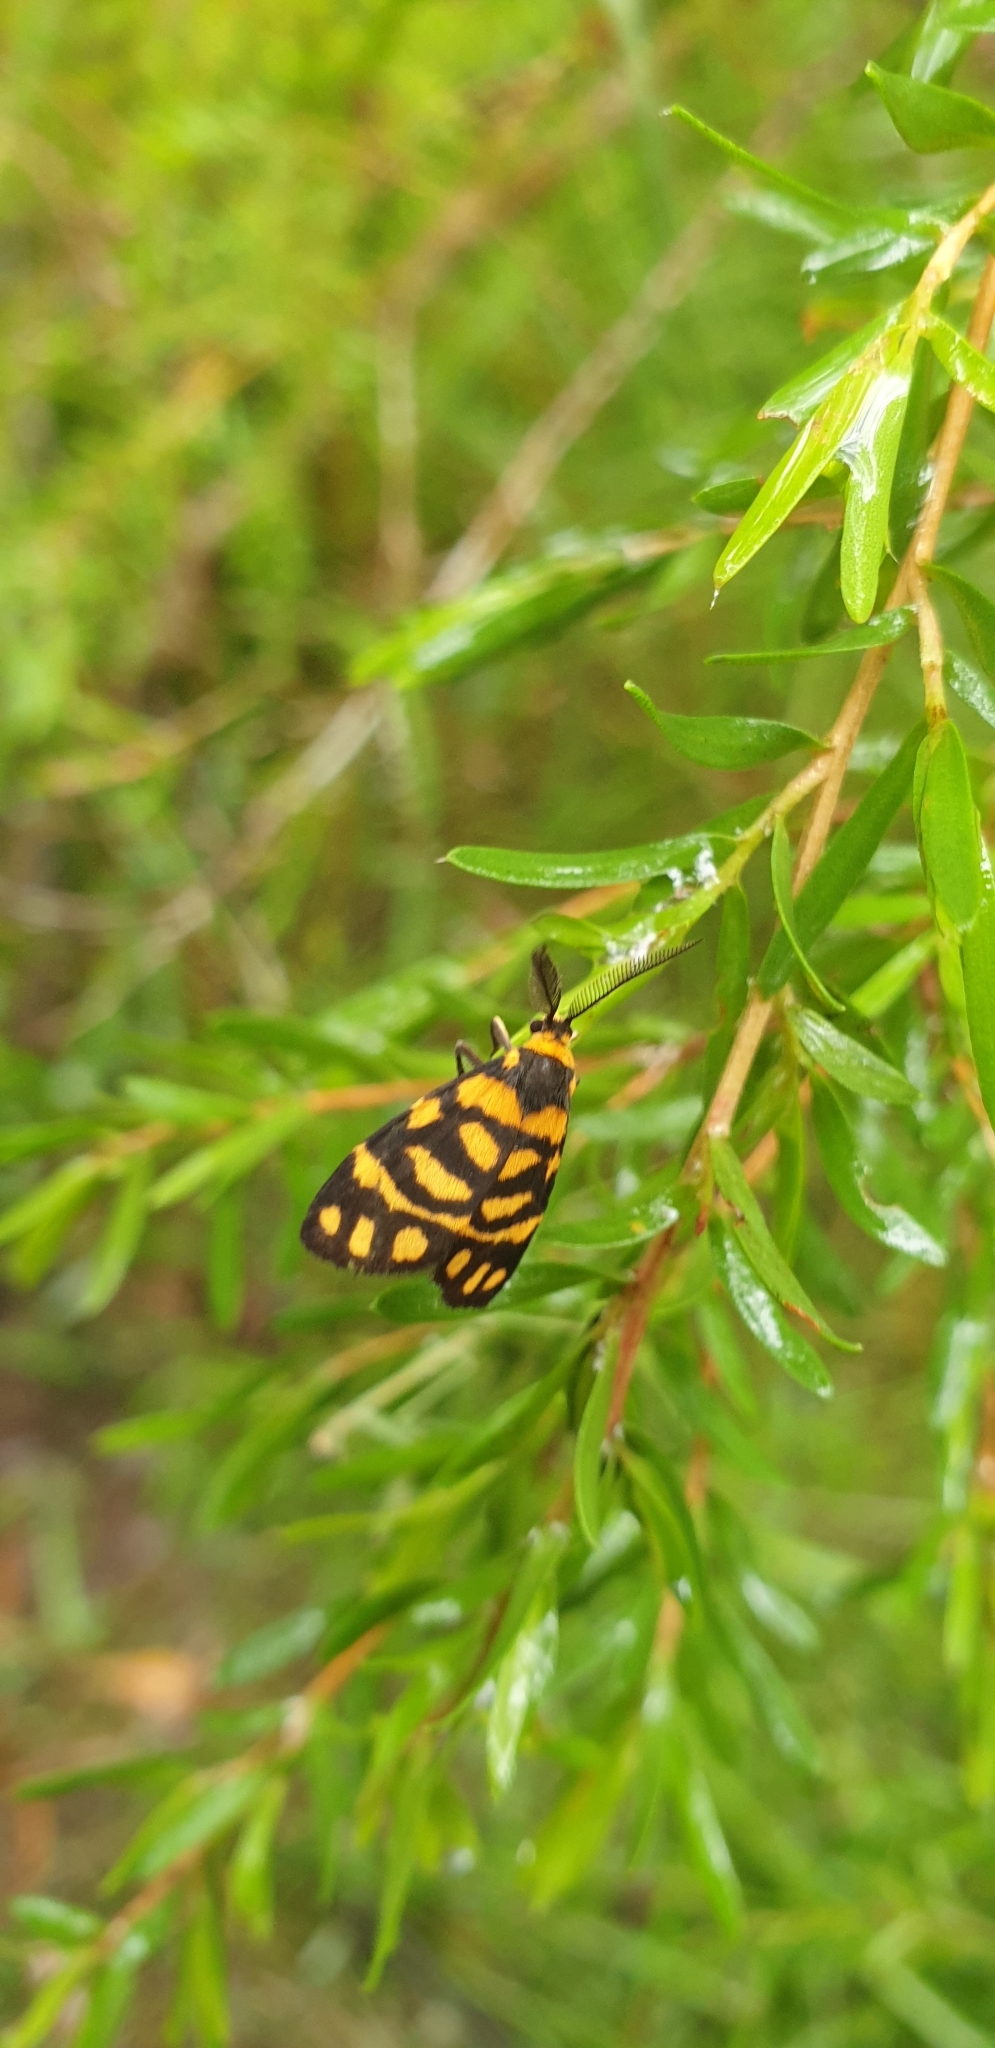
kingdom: Animalia
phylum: Arthropoda
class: Insecta
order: Lepidoptera
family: Erebidae
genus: Asura
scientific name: Asura lydia
